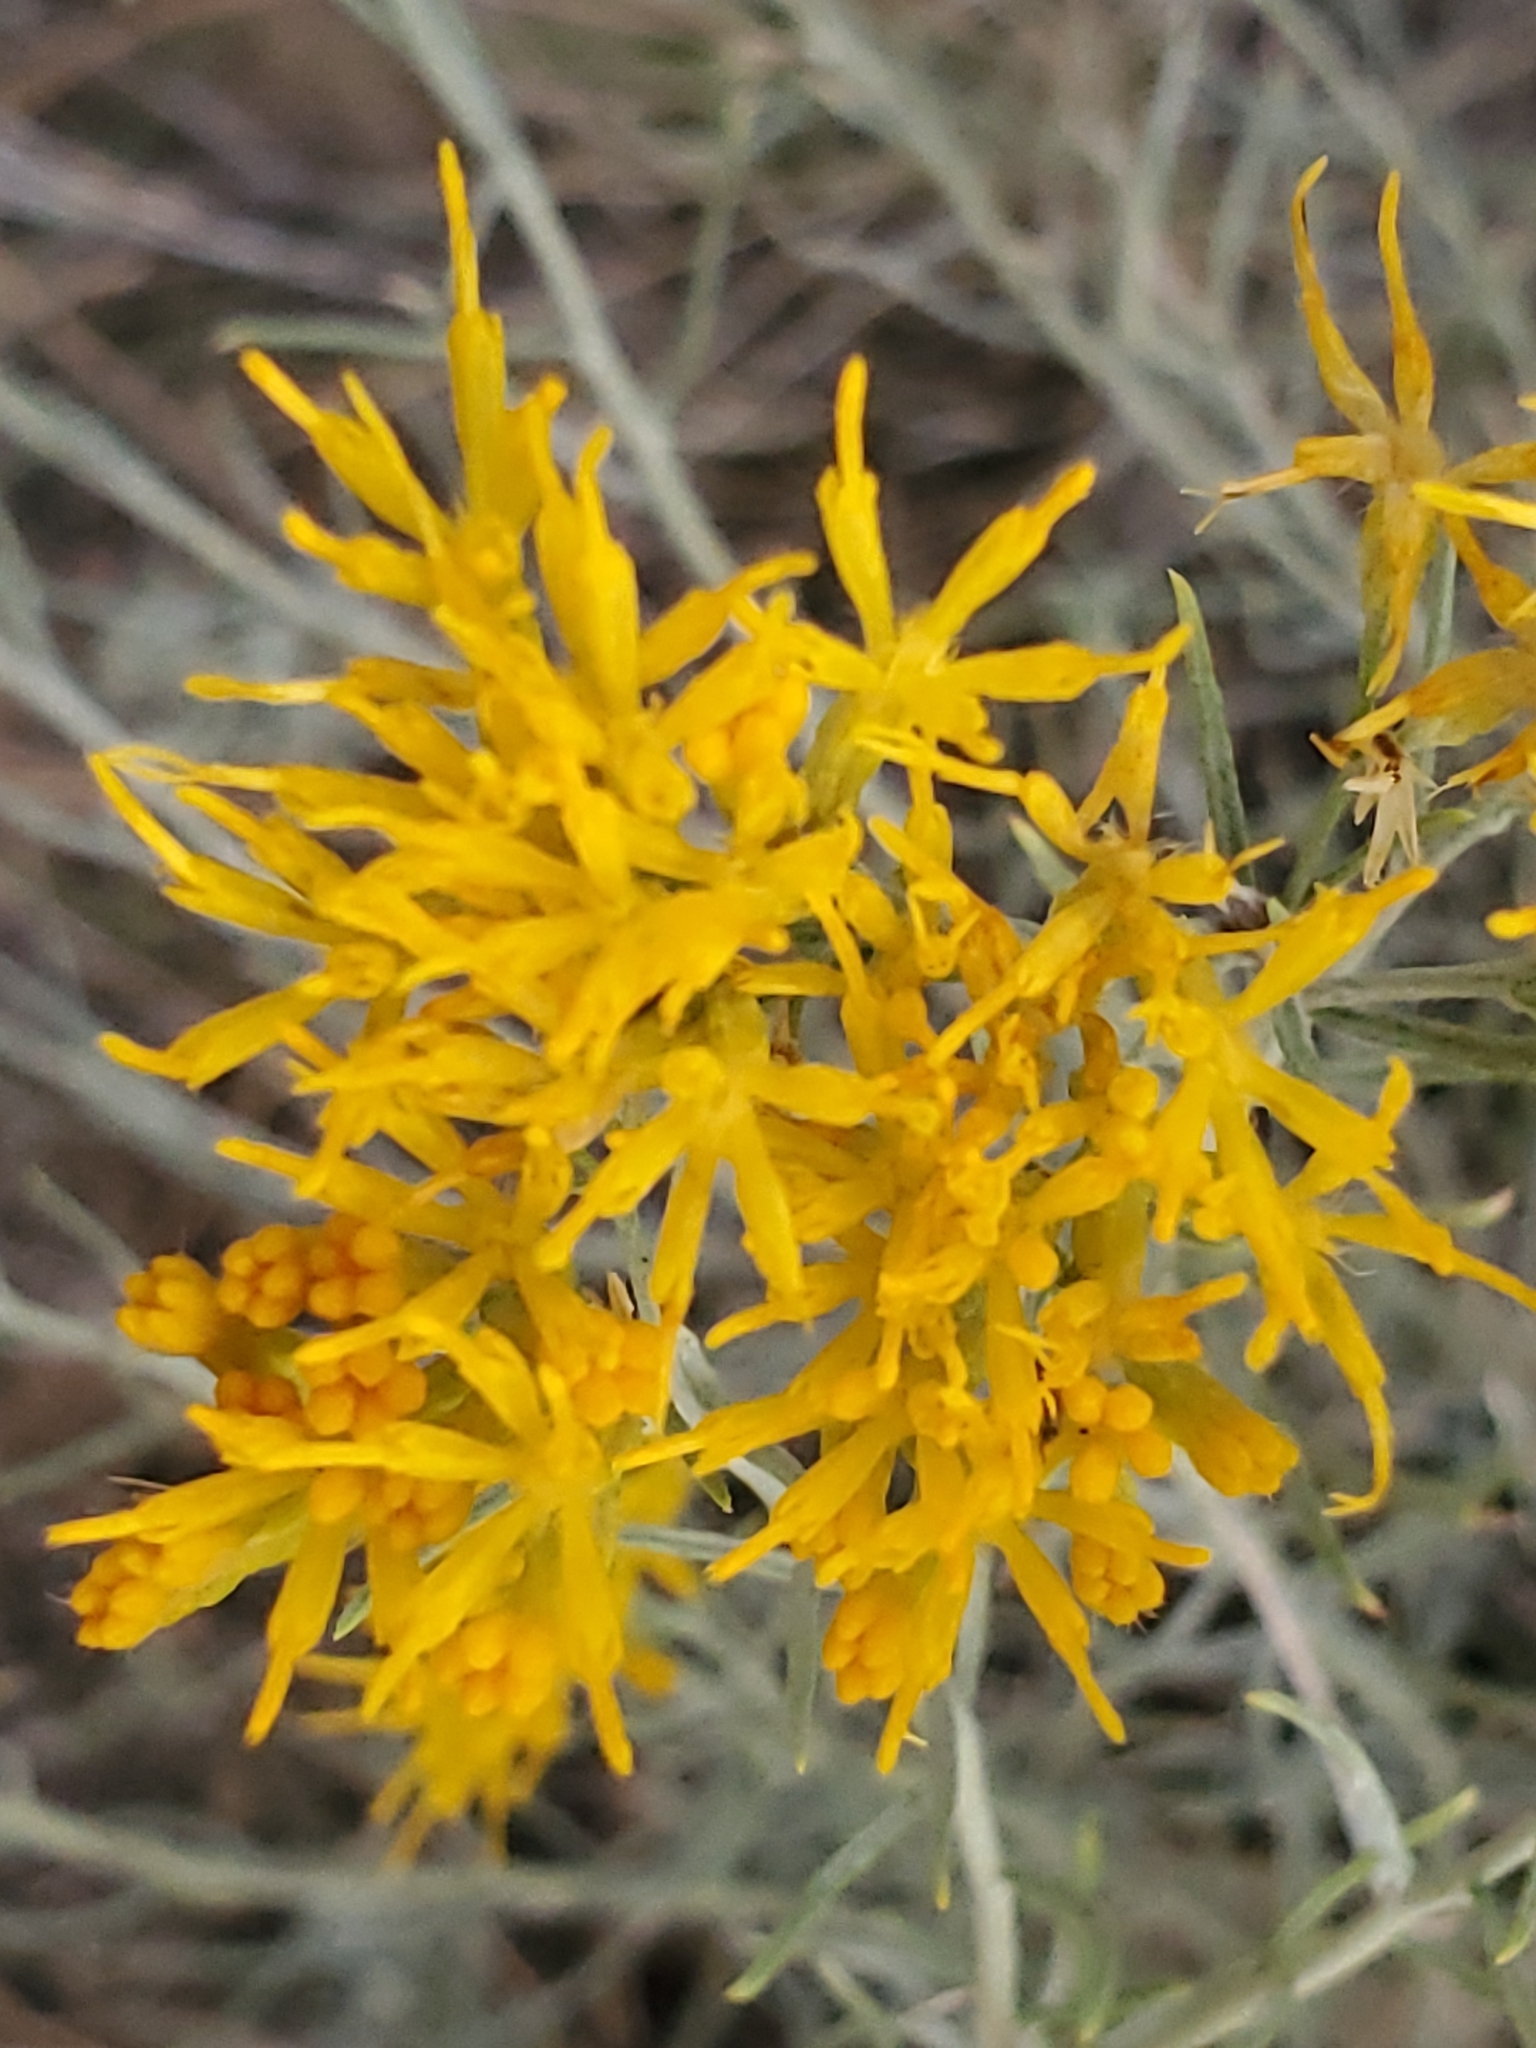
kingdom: Plantae
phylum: Tracheophyta
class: Magnoliopsida
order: Asterales
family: Asteraceae
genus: Ericameria
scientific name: Ericameria nauseosa
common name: Rubber rabbitbrush
